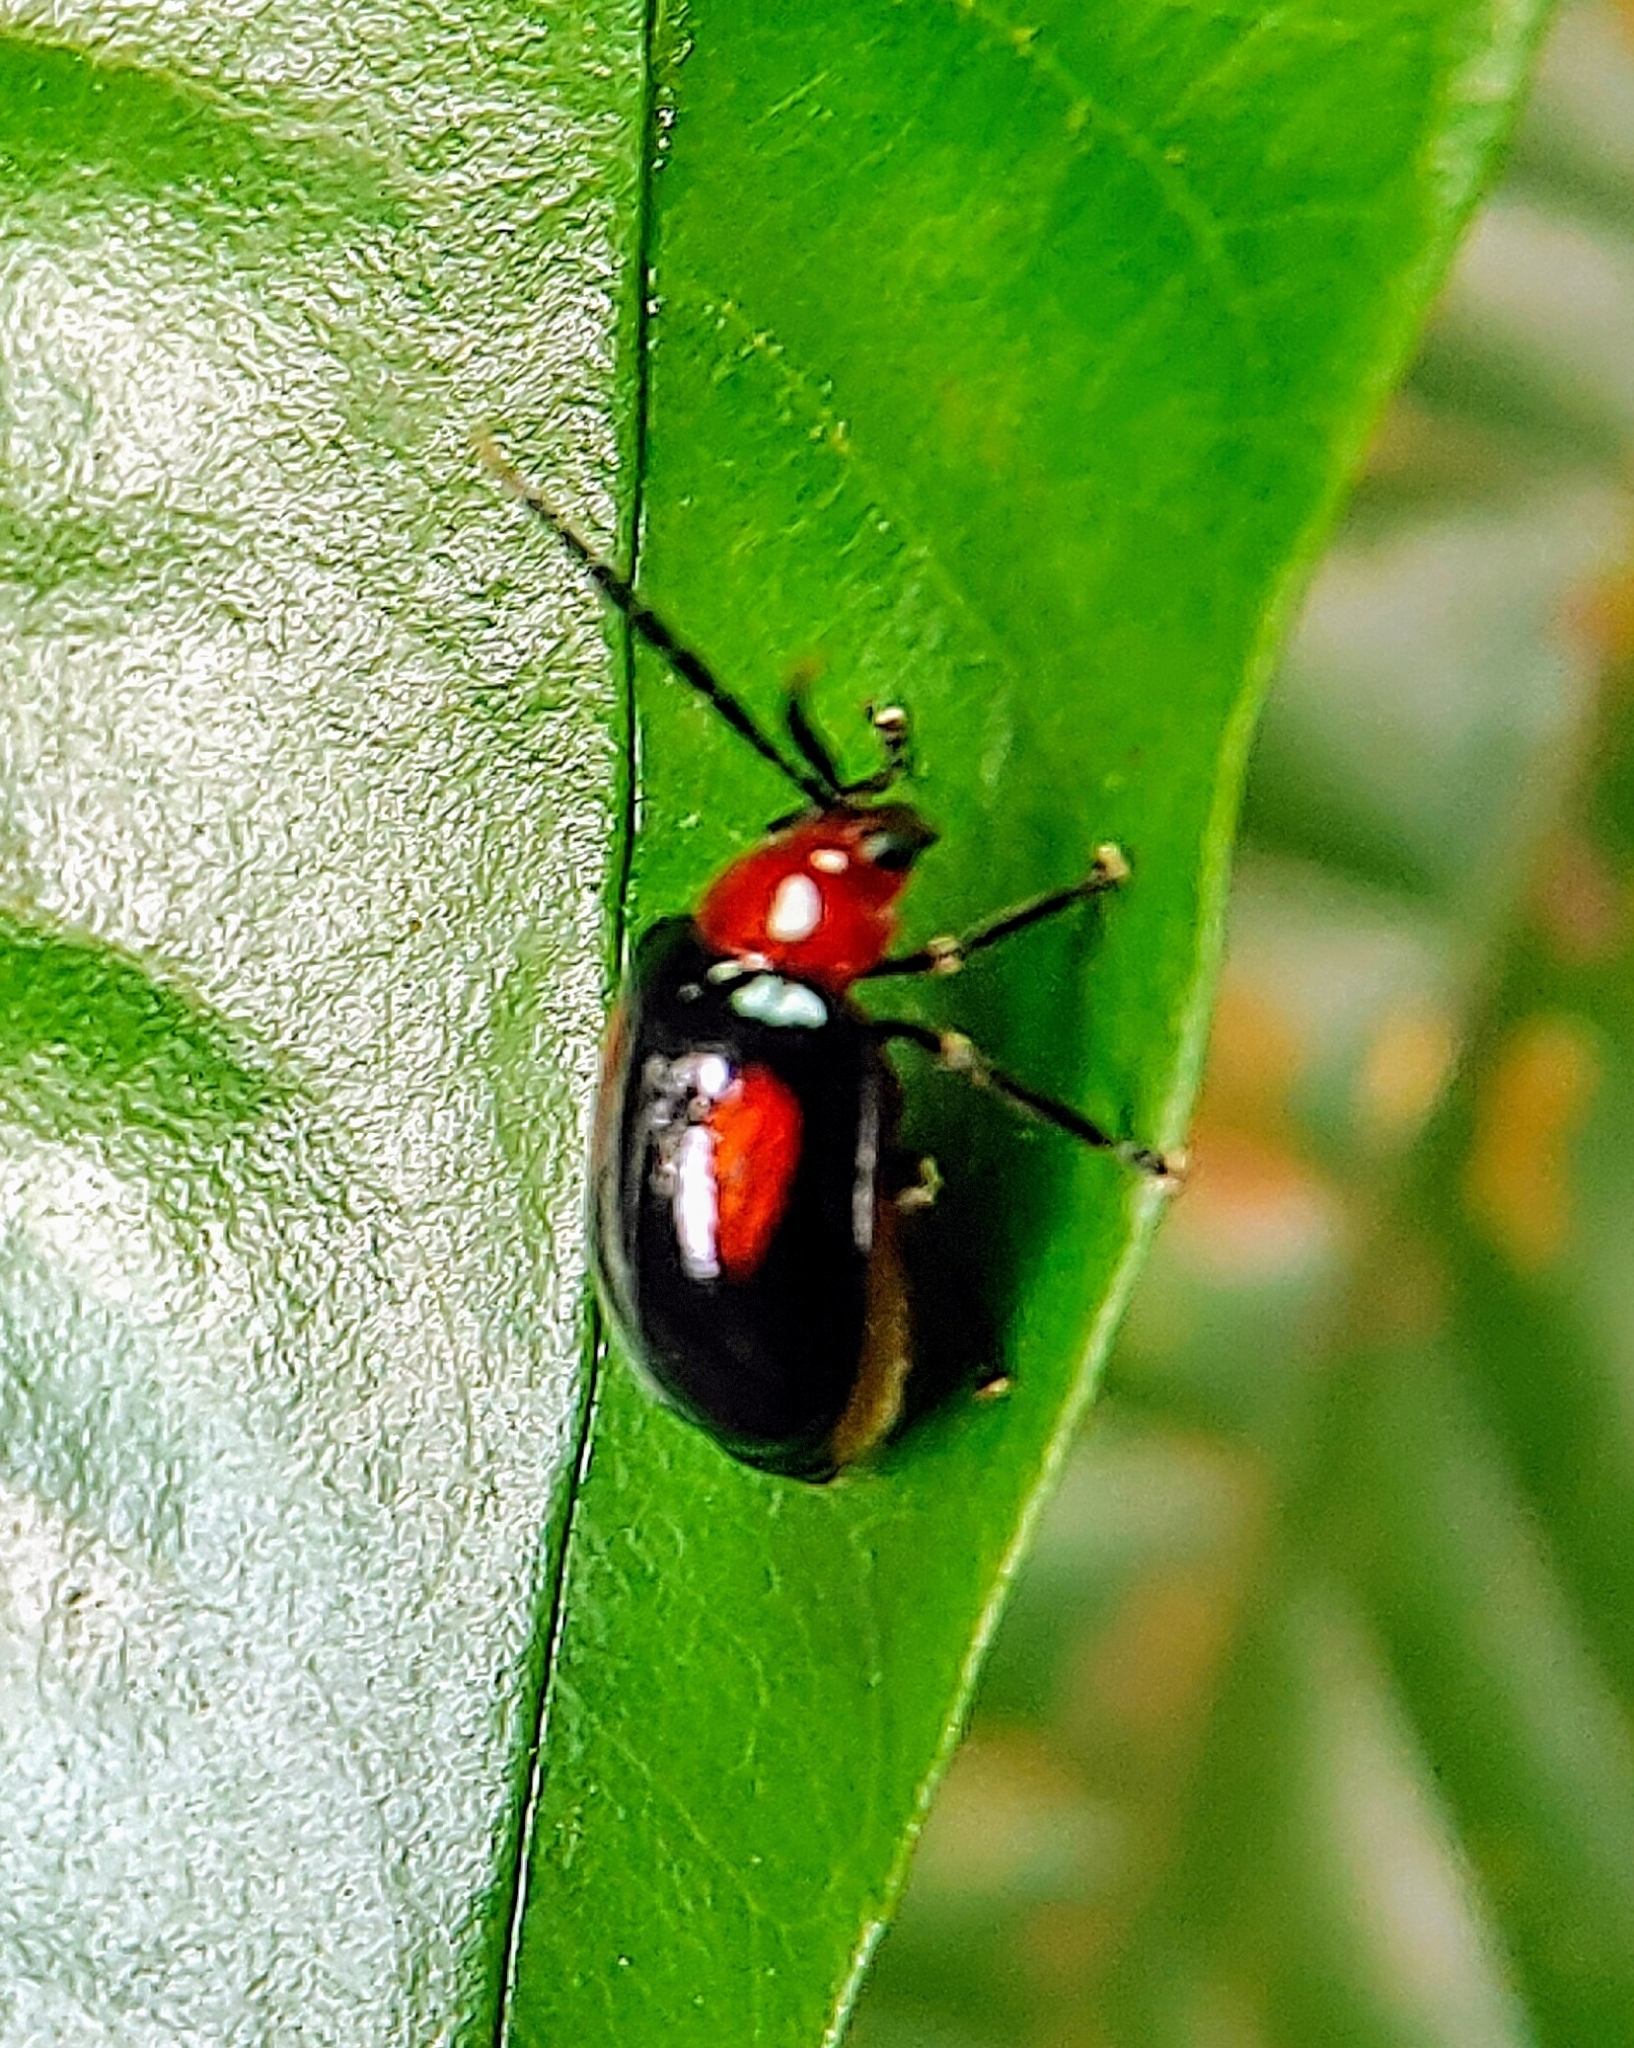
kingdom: Animalia
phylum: Arthropoda
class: Insecta
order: Coleoptera
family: Chrysomelidae
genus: Arcastes
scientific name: Arcastes biplagiata
